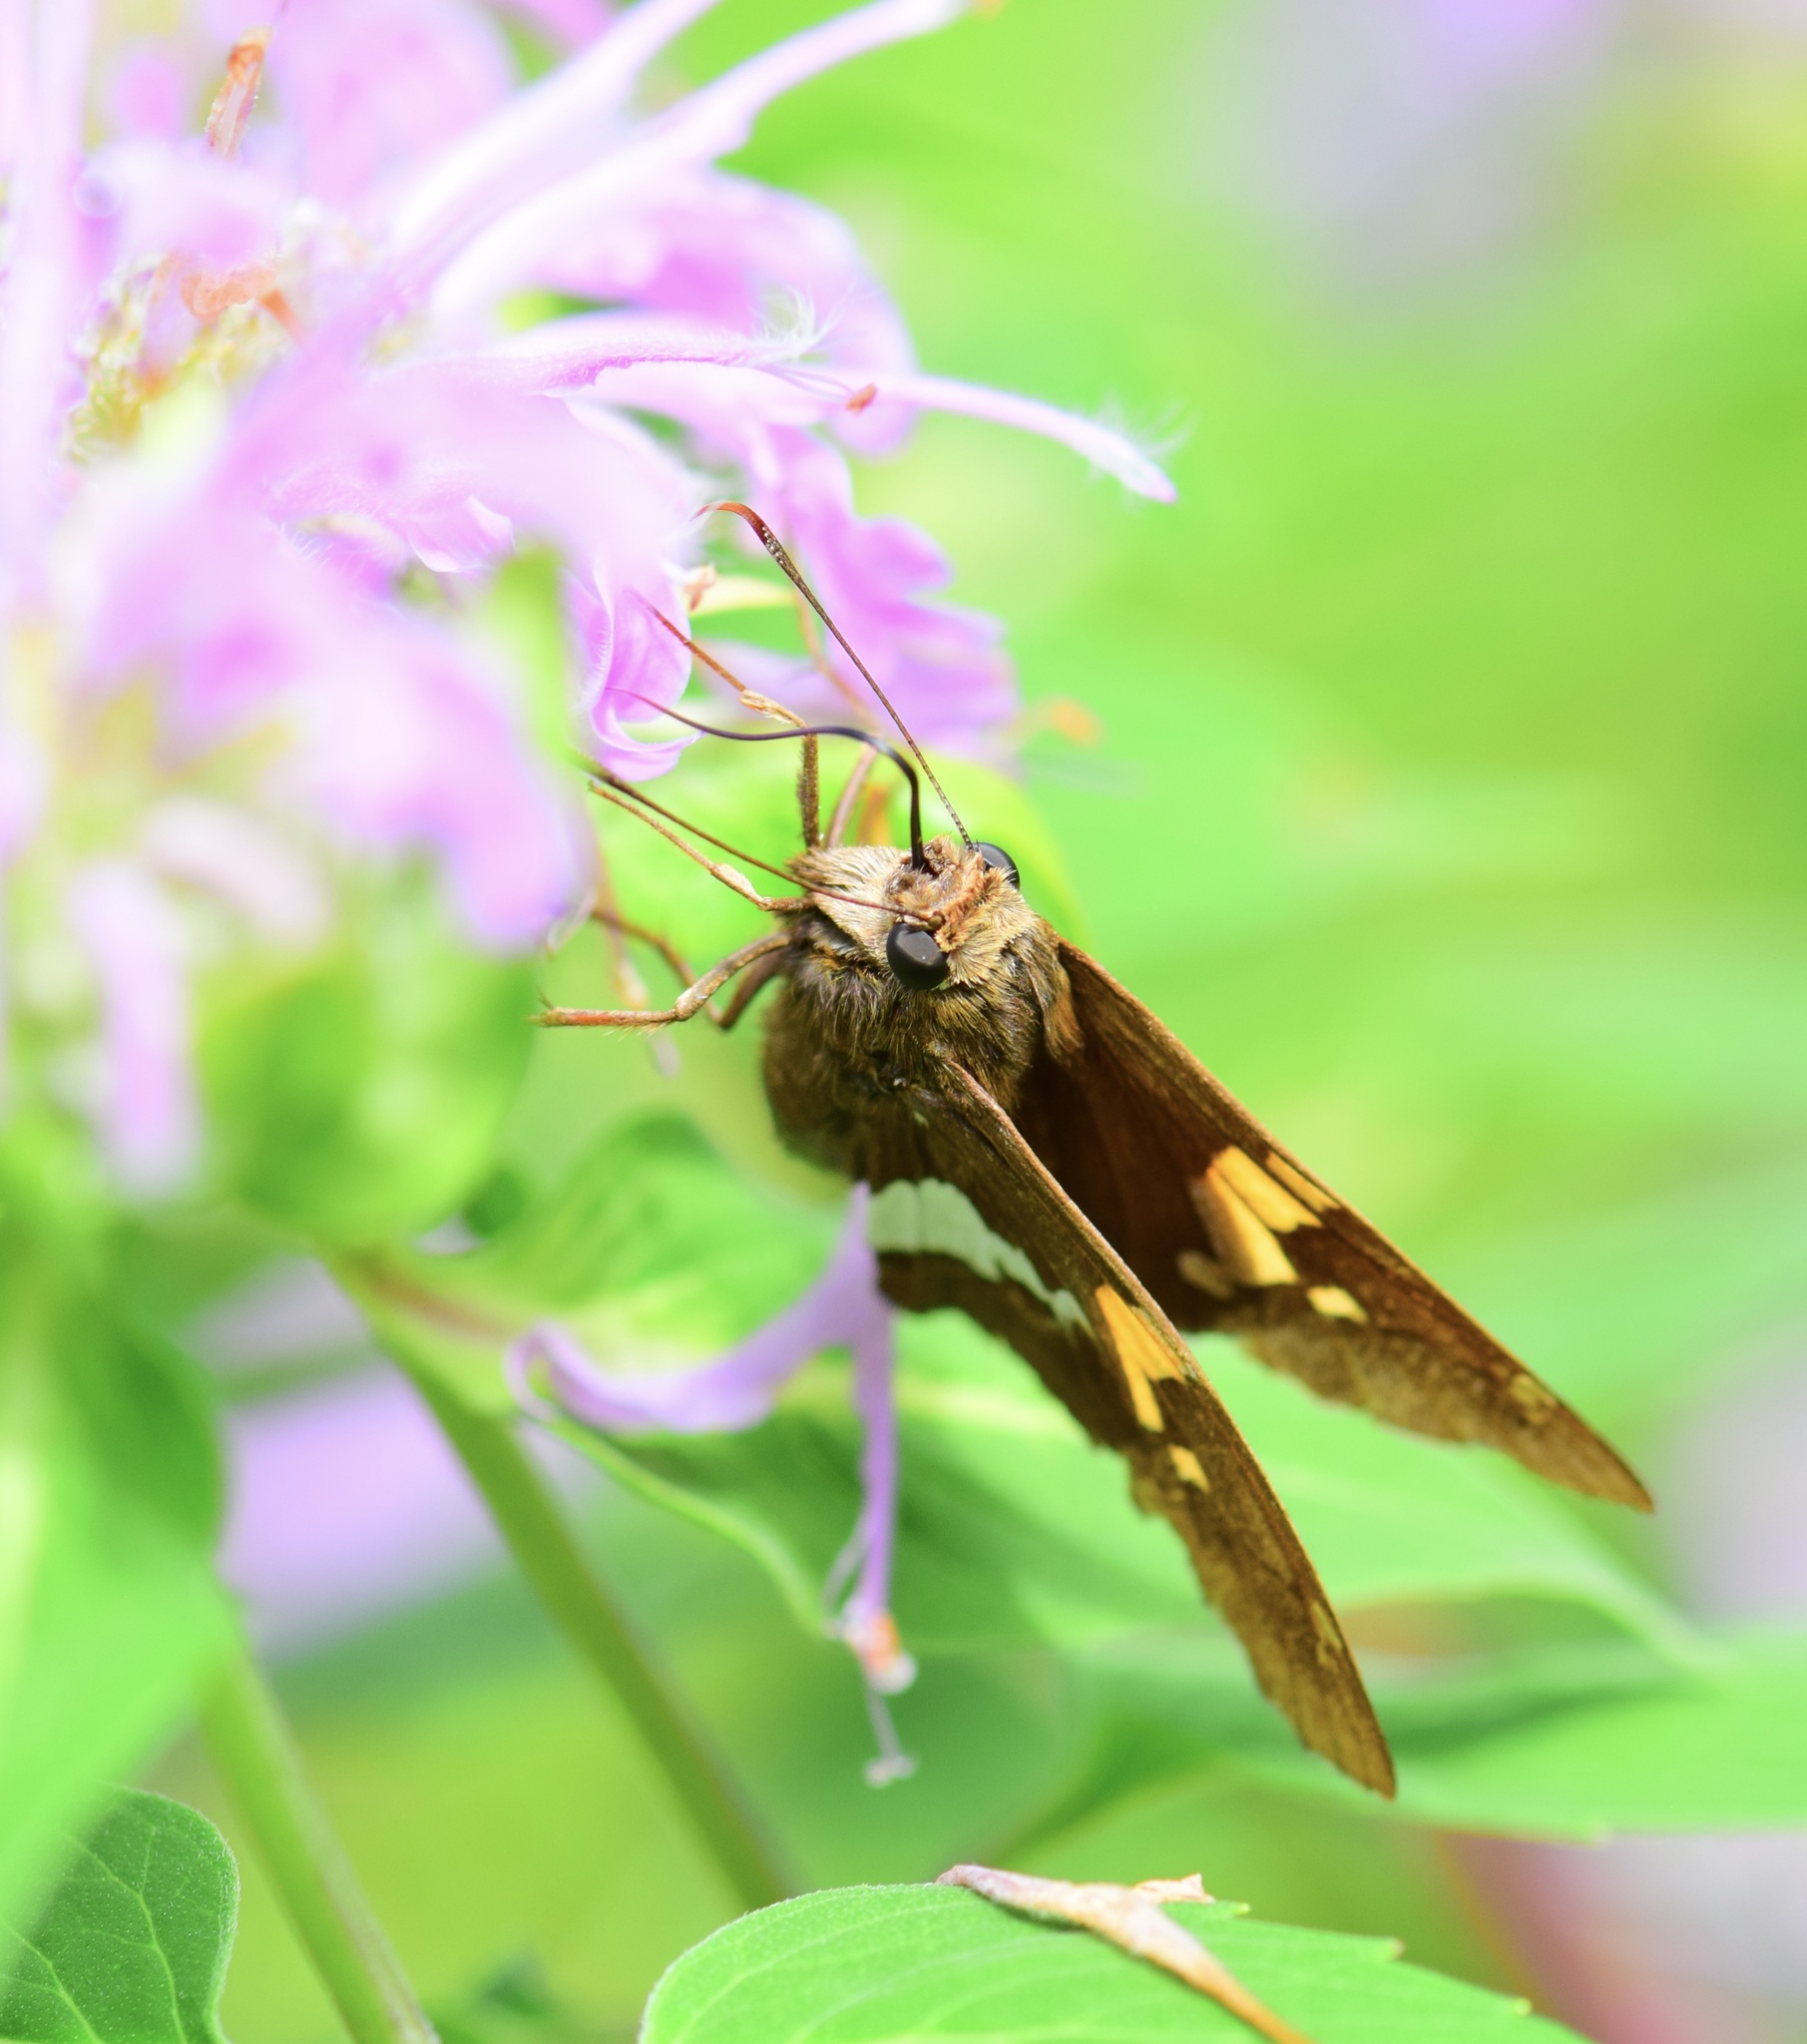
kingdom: Animalia
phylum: Arthropoda
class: Insecta
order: Lepidoptera
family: Hesperiidae
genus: Epargyreus
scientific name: Epargyreus clarus
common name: Silver-spotted skipper
